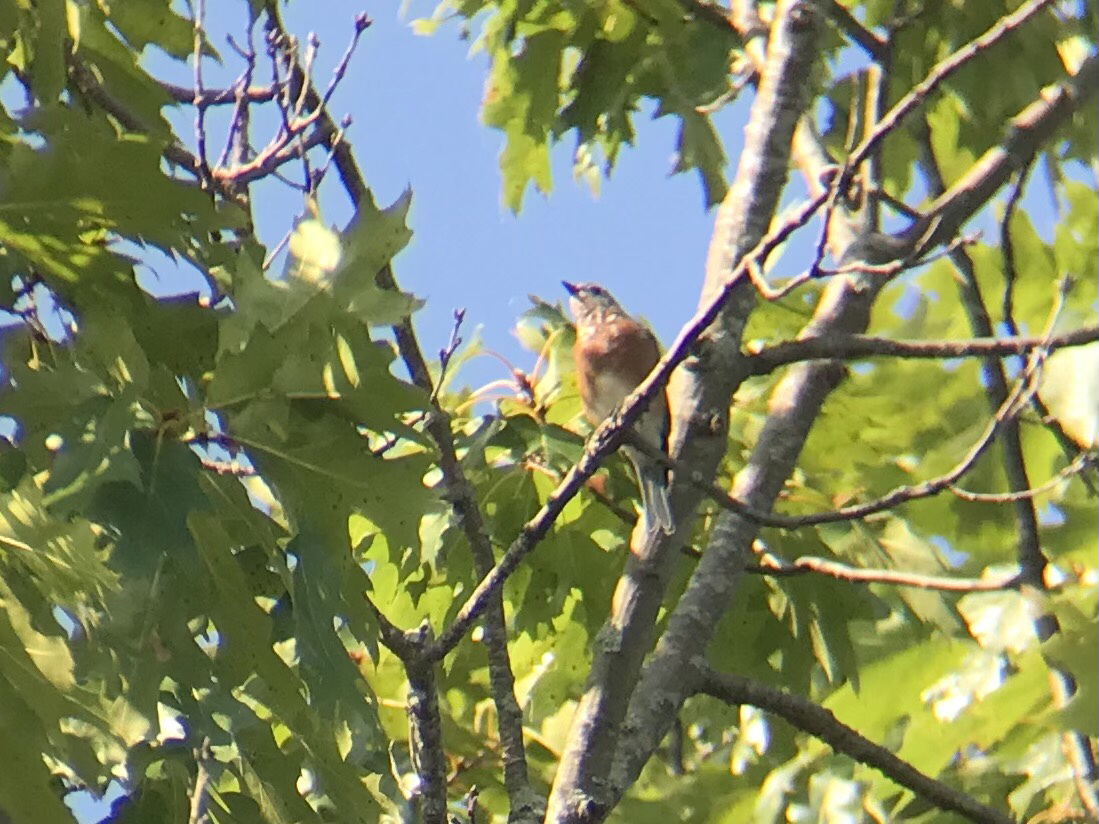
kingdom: Animalia
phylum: Chordata
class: Aves
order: Passeriformes
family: Turdidae
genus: Sialia
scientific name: Sialia sialis
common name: Eastern bluebird
